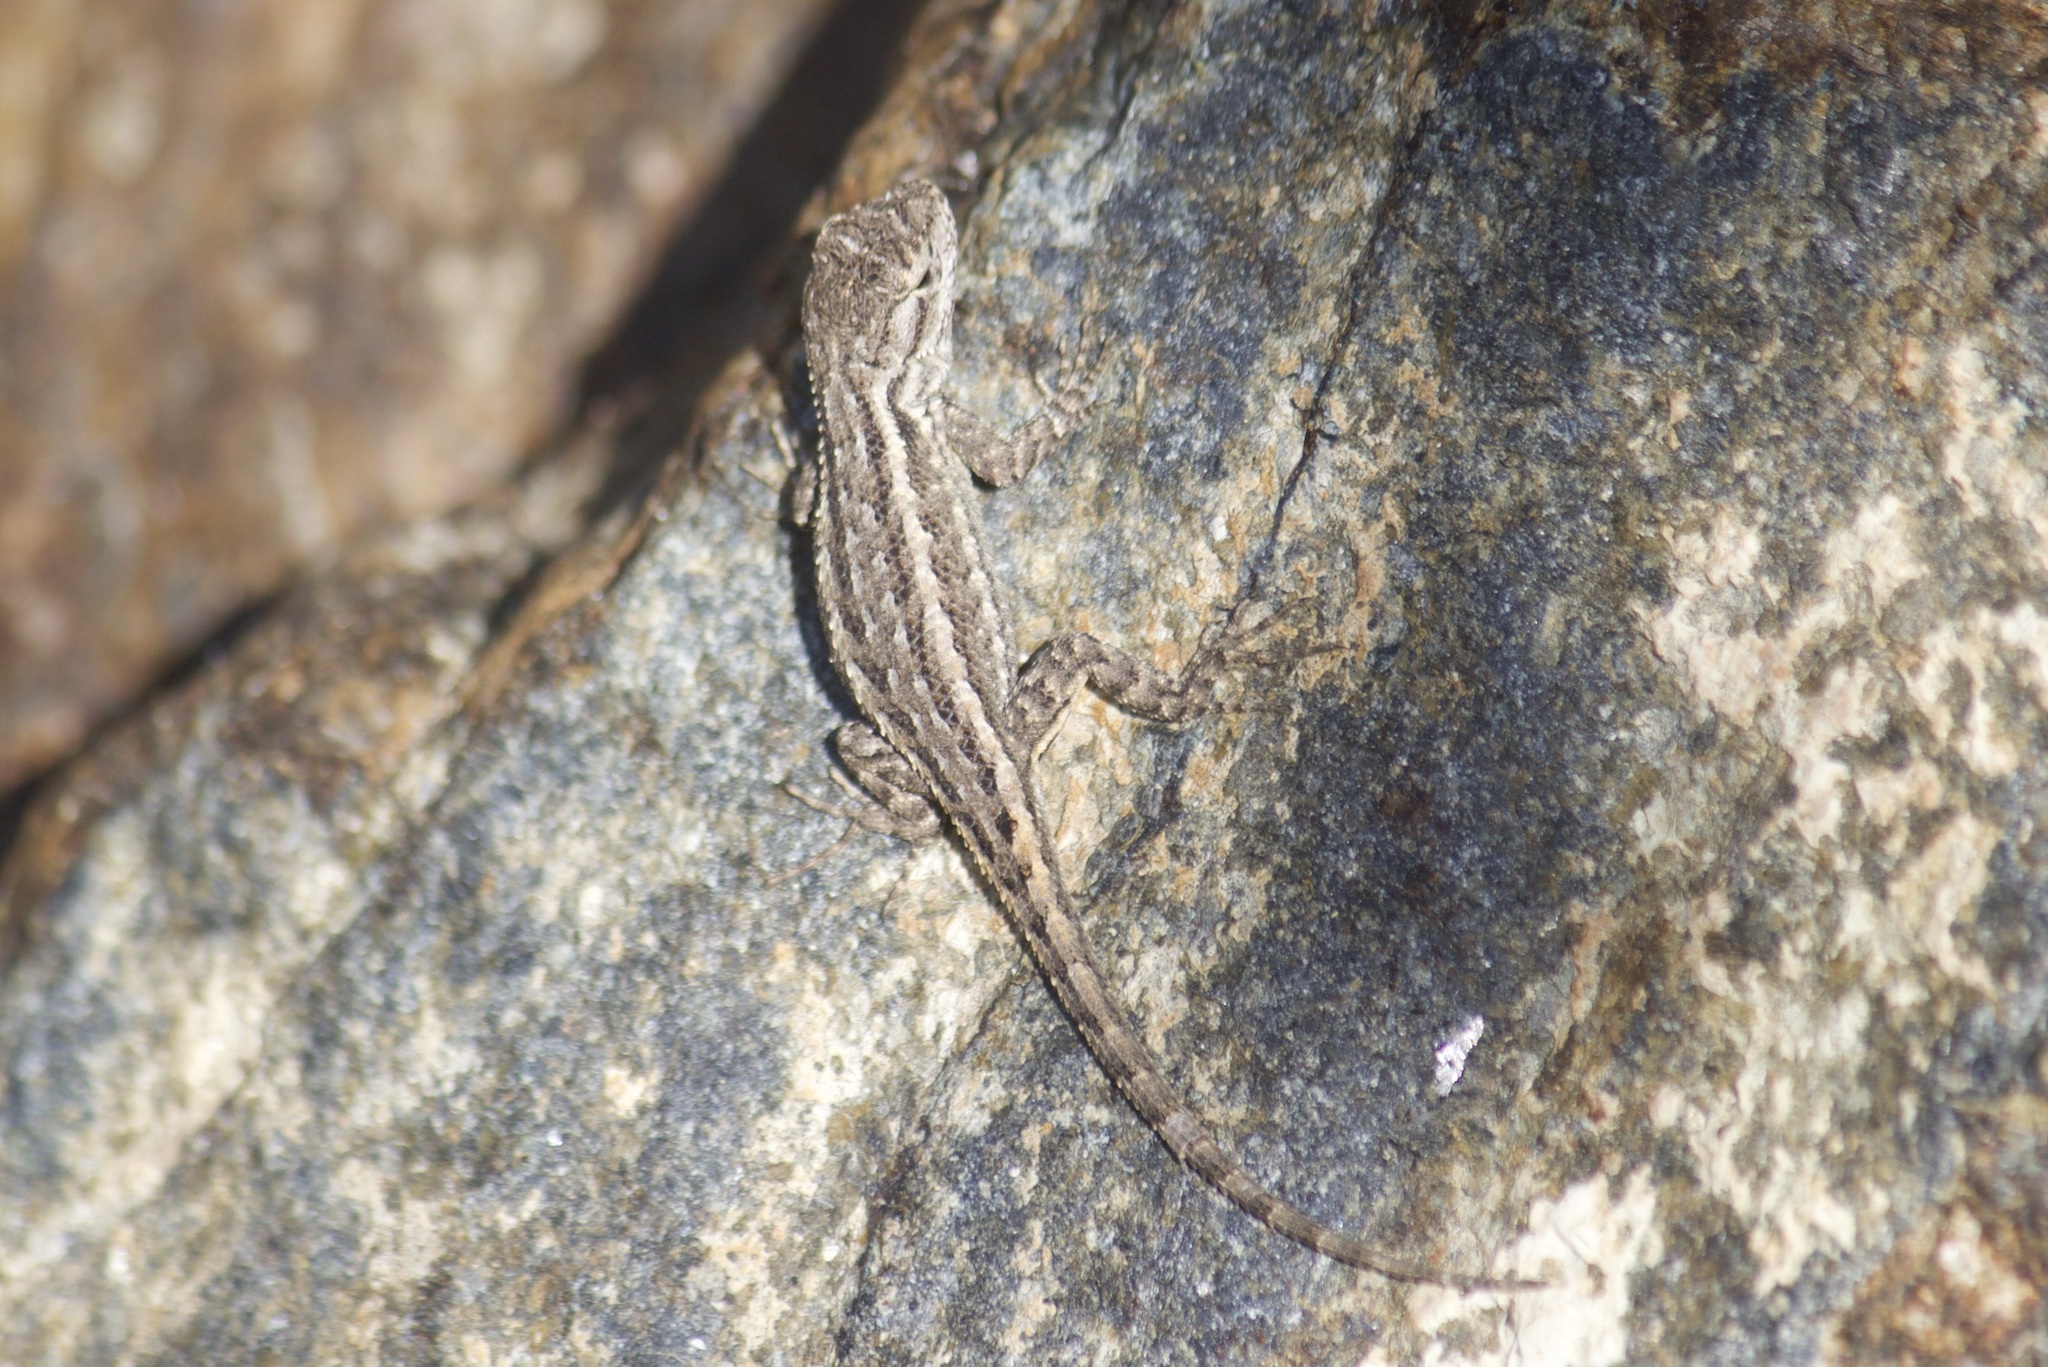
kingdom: Animalia
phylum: Chordata
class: Squamata
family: Phrynosomatidae
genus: Sceloporus
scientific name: Sceloporus occidentalis
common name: Western fence lizard
